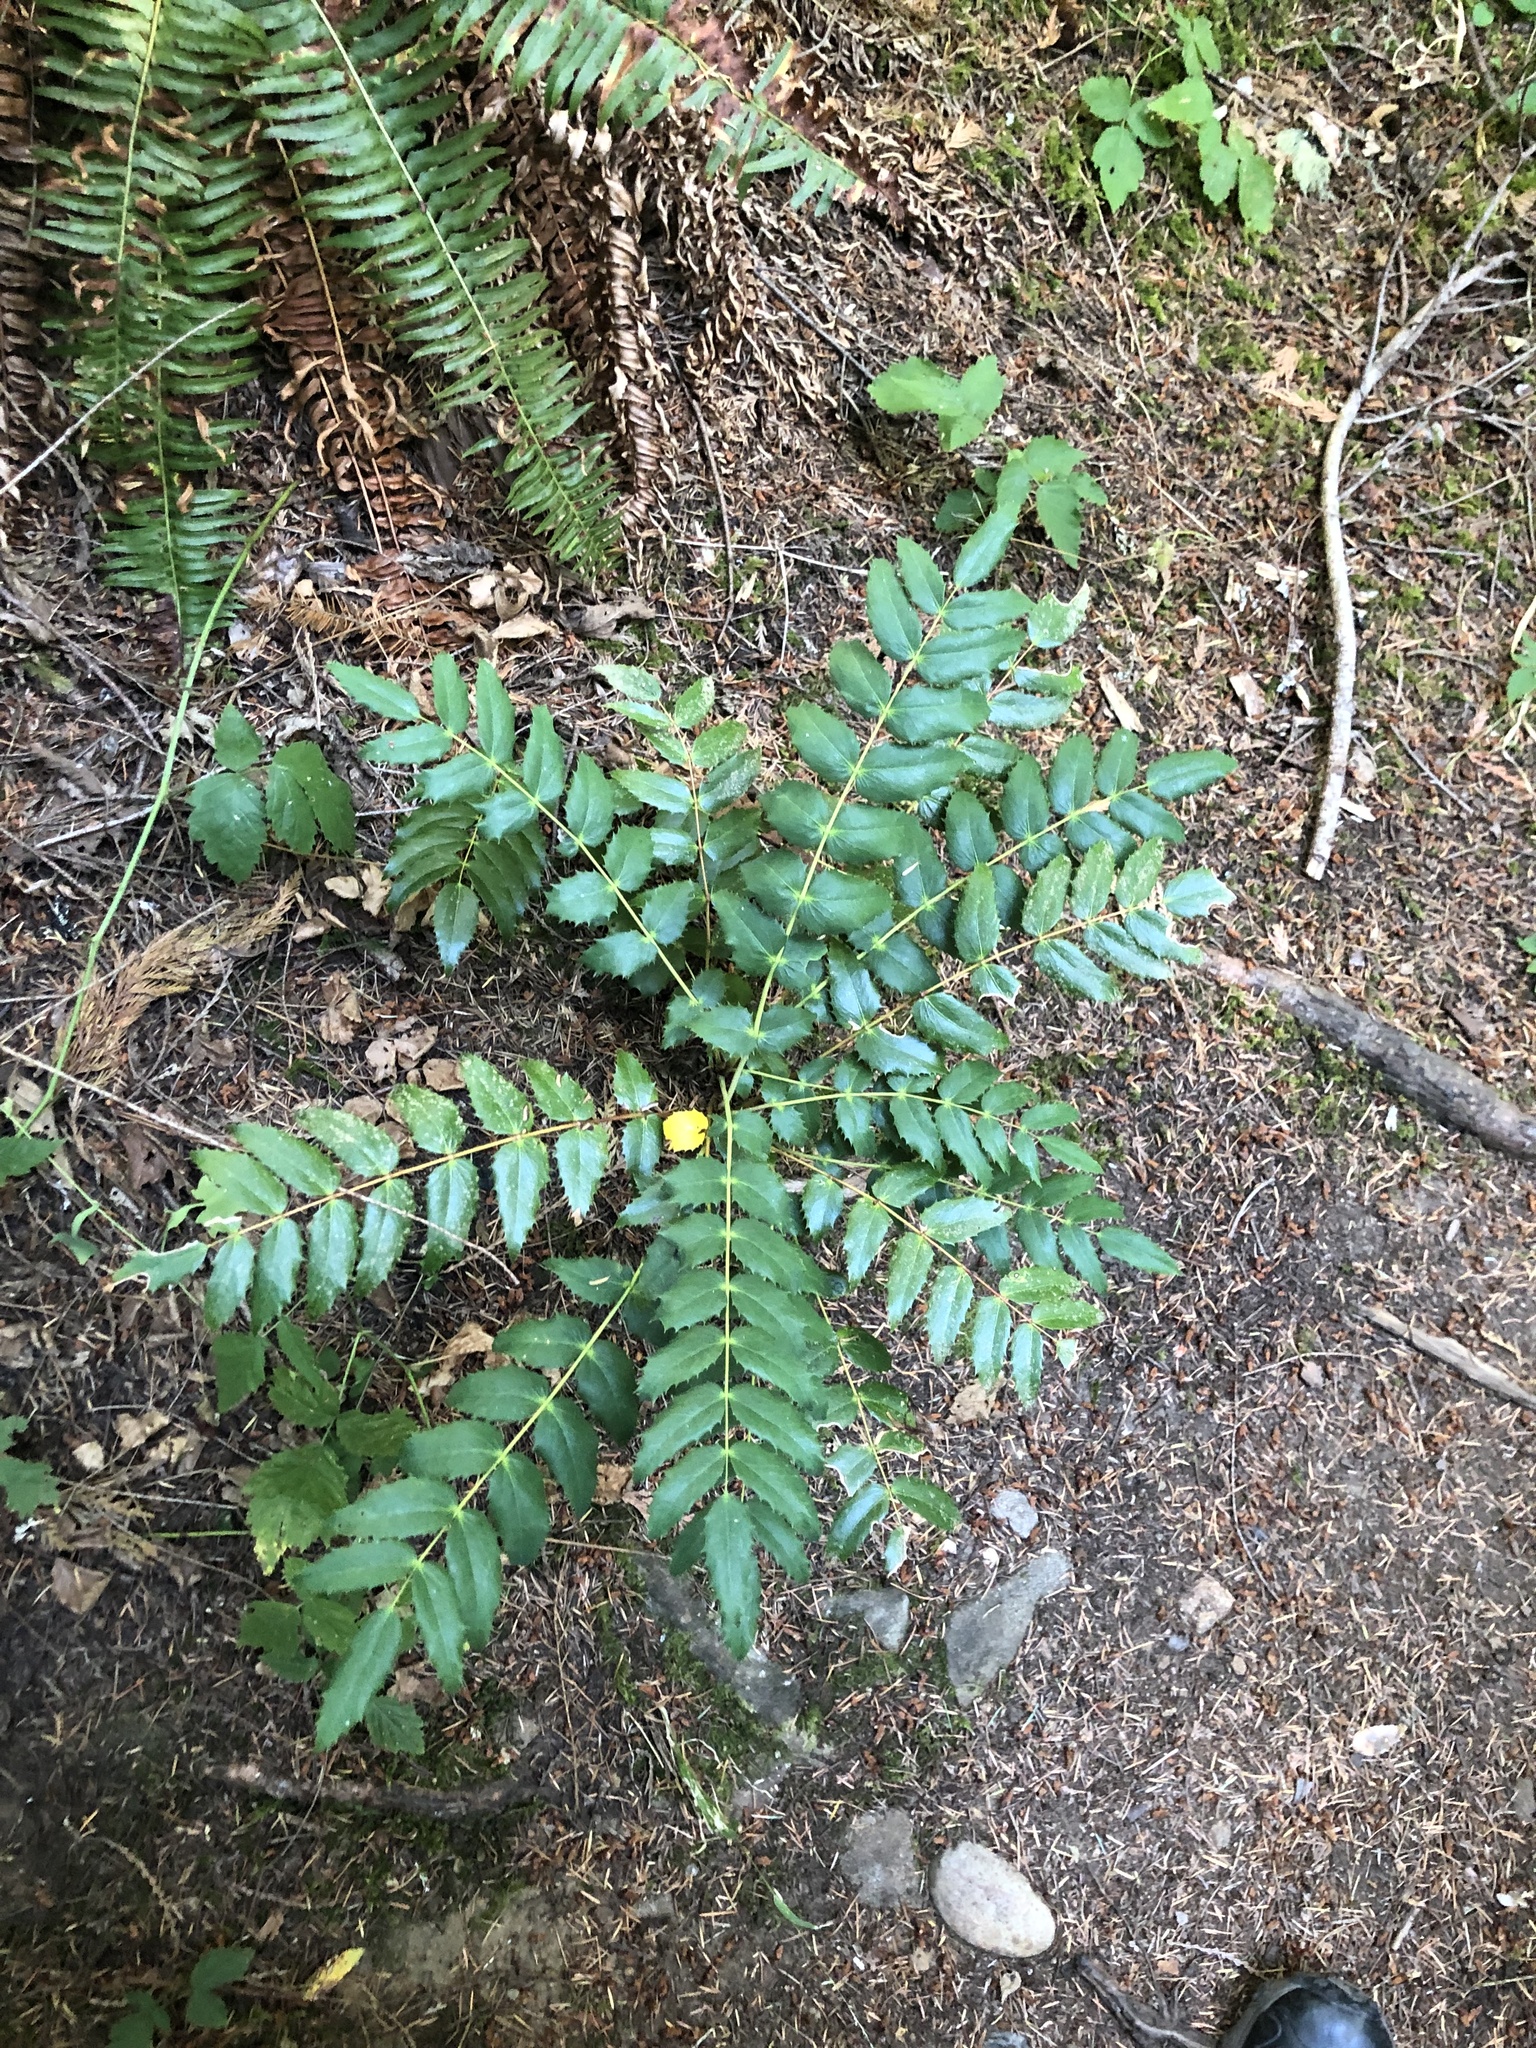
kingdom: Plantae
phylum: Tracheophyta
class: Magnoliopsida
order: Ranunculales
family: Berberidaceae
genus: Mahonia
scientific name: Mahonia nervosa
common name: Cascade oregon-grape
